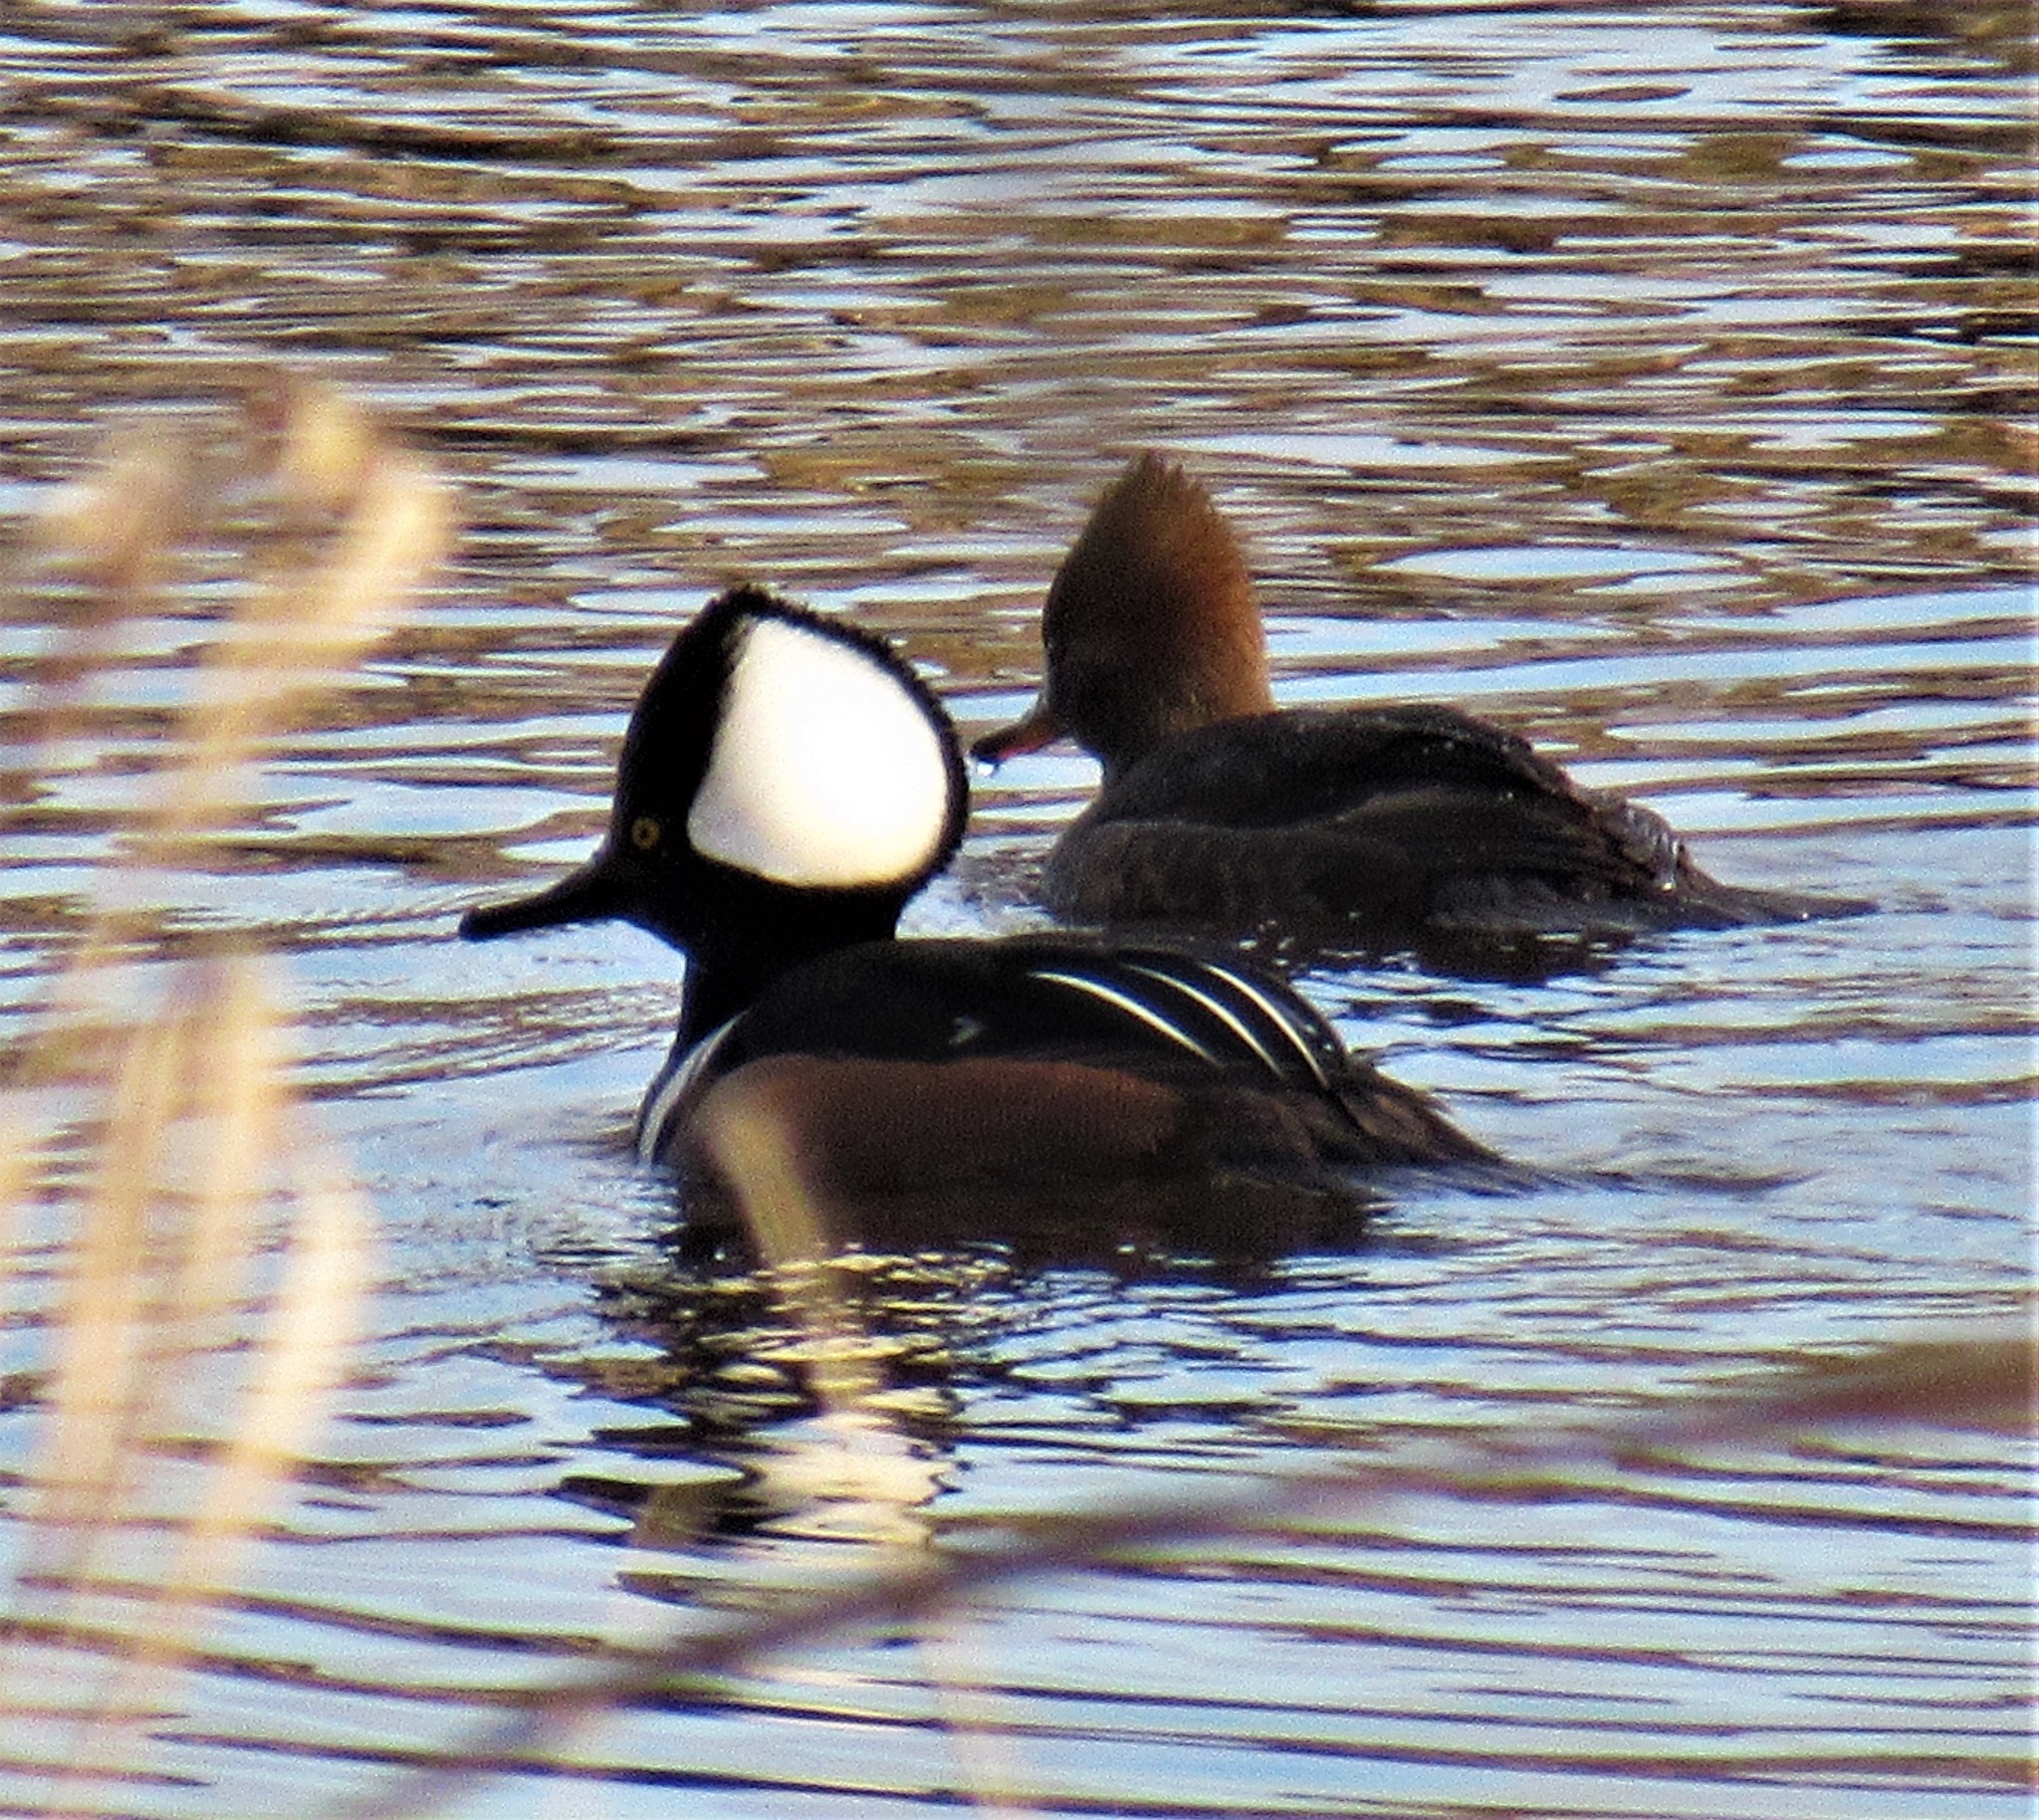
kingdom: Animalia
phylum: Chordata
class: Aves
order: Anseriformes
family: Anatidae
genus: Lophodytes
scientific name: Lophodytes cucullatus
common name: Hooded merganser
